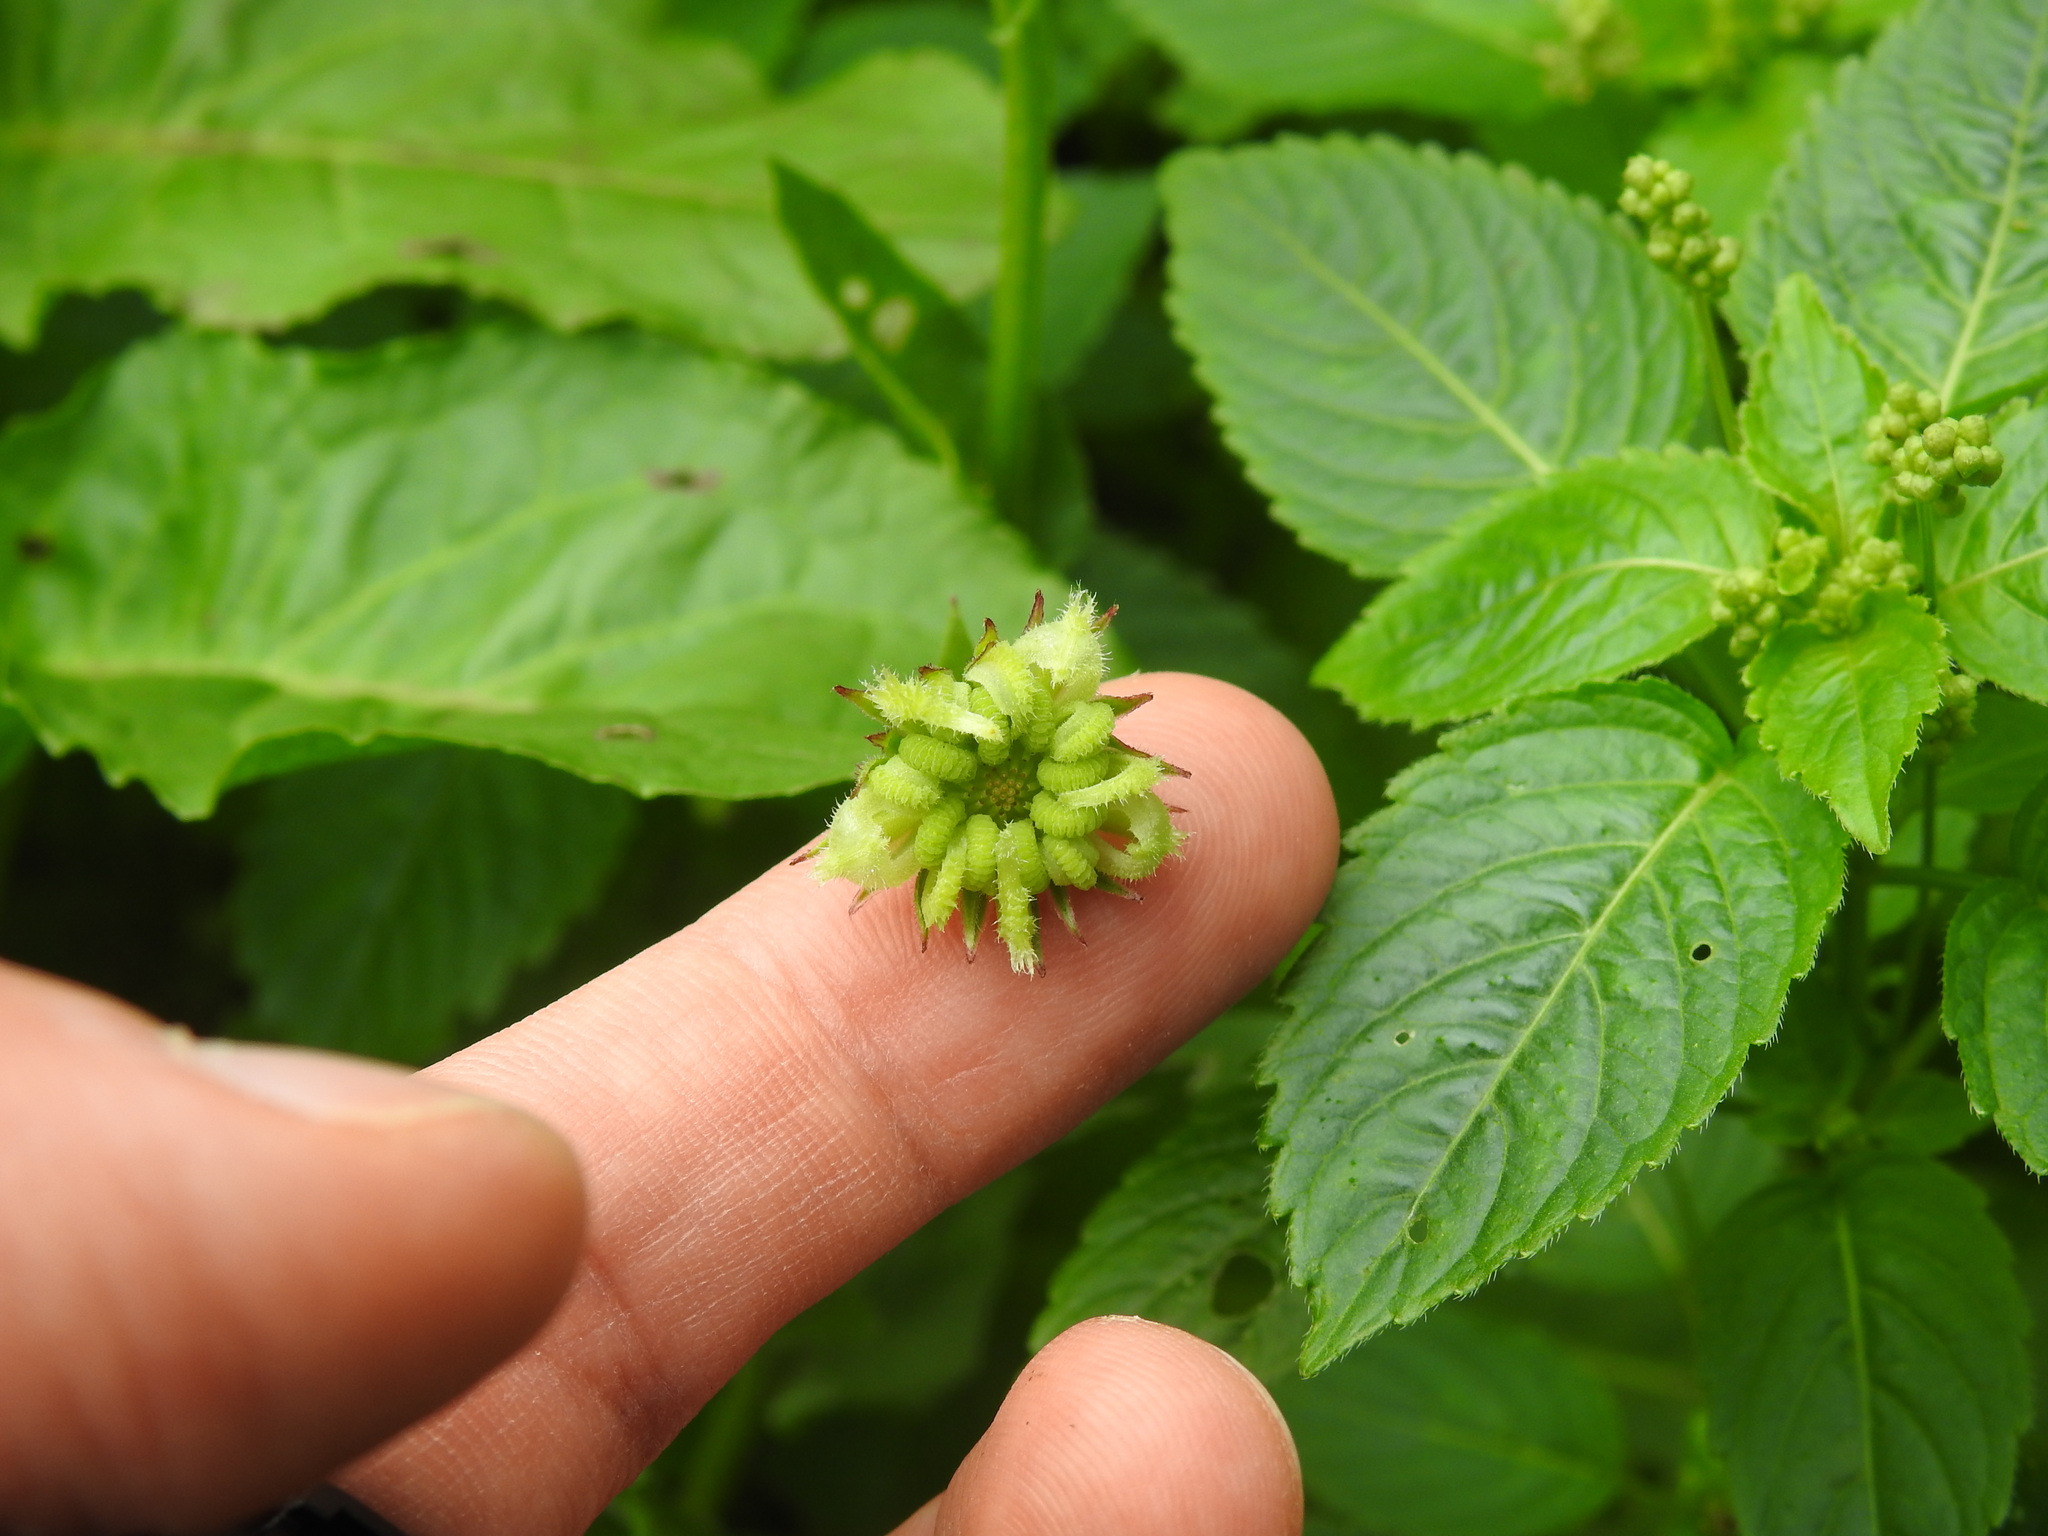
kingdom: Plantae
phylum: Tracheophyta
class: Magnoliopsida
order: Asterales
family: Asteraceae
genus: Calendula
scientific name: Calendula arvensis
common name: Field marigold
